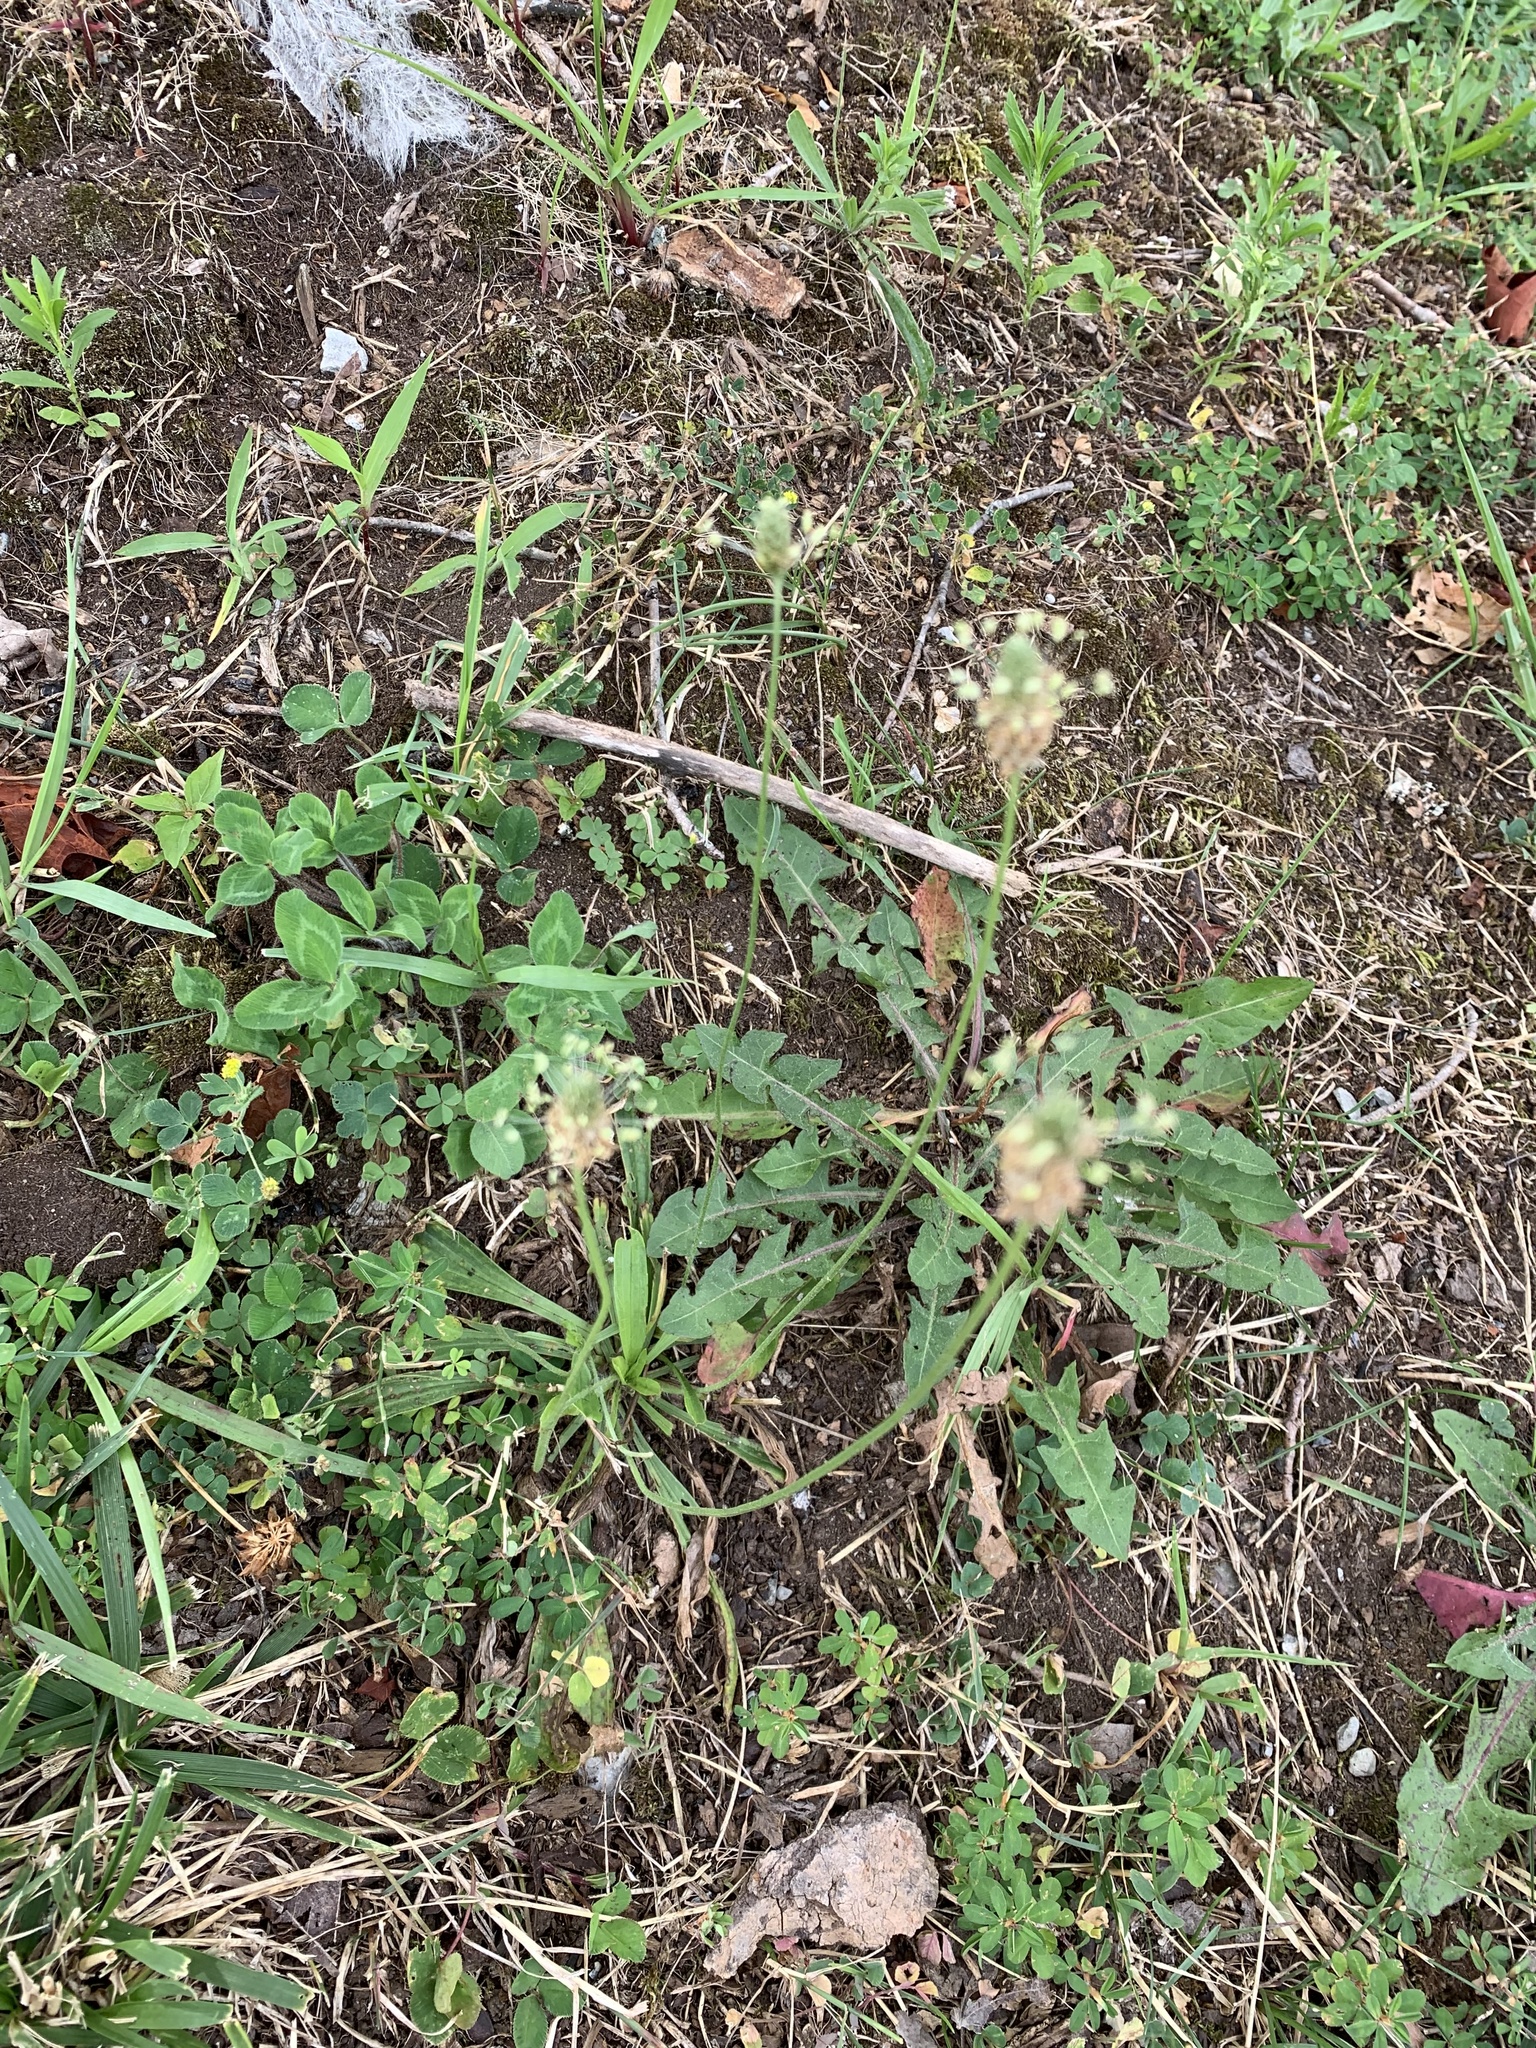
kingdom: Plantae
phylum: Tracheophyta
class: Magnoliopsida
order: Lamiales
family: Plantaginaceae
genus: Plantago
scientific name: Plantago lanceolata
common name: Ribwort plantain
